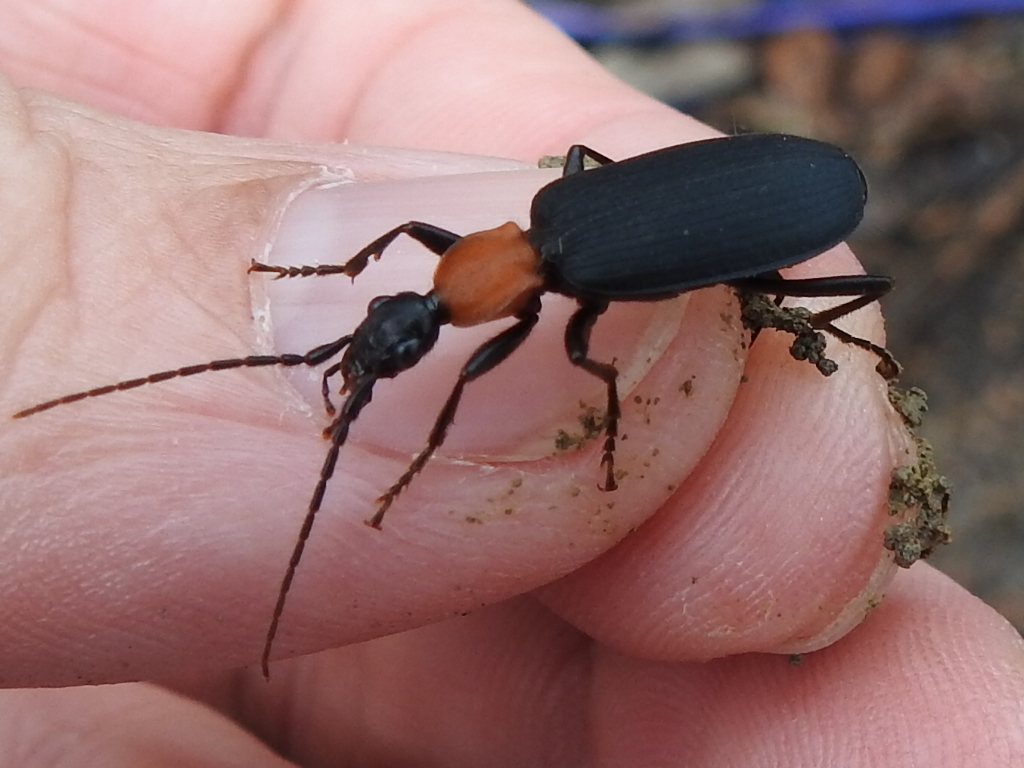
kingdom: Animalia
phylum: Arthropoda
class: Insecta
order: Coleoptera
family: Carabidae
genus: Galerita
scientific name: Galerita mexicana
